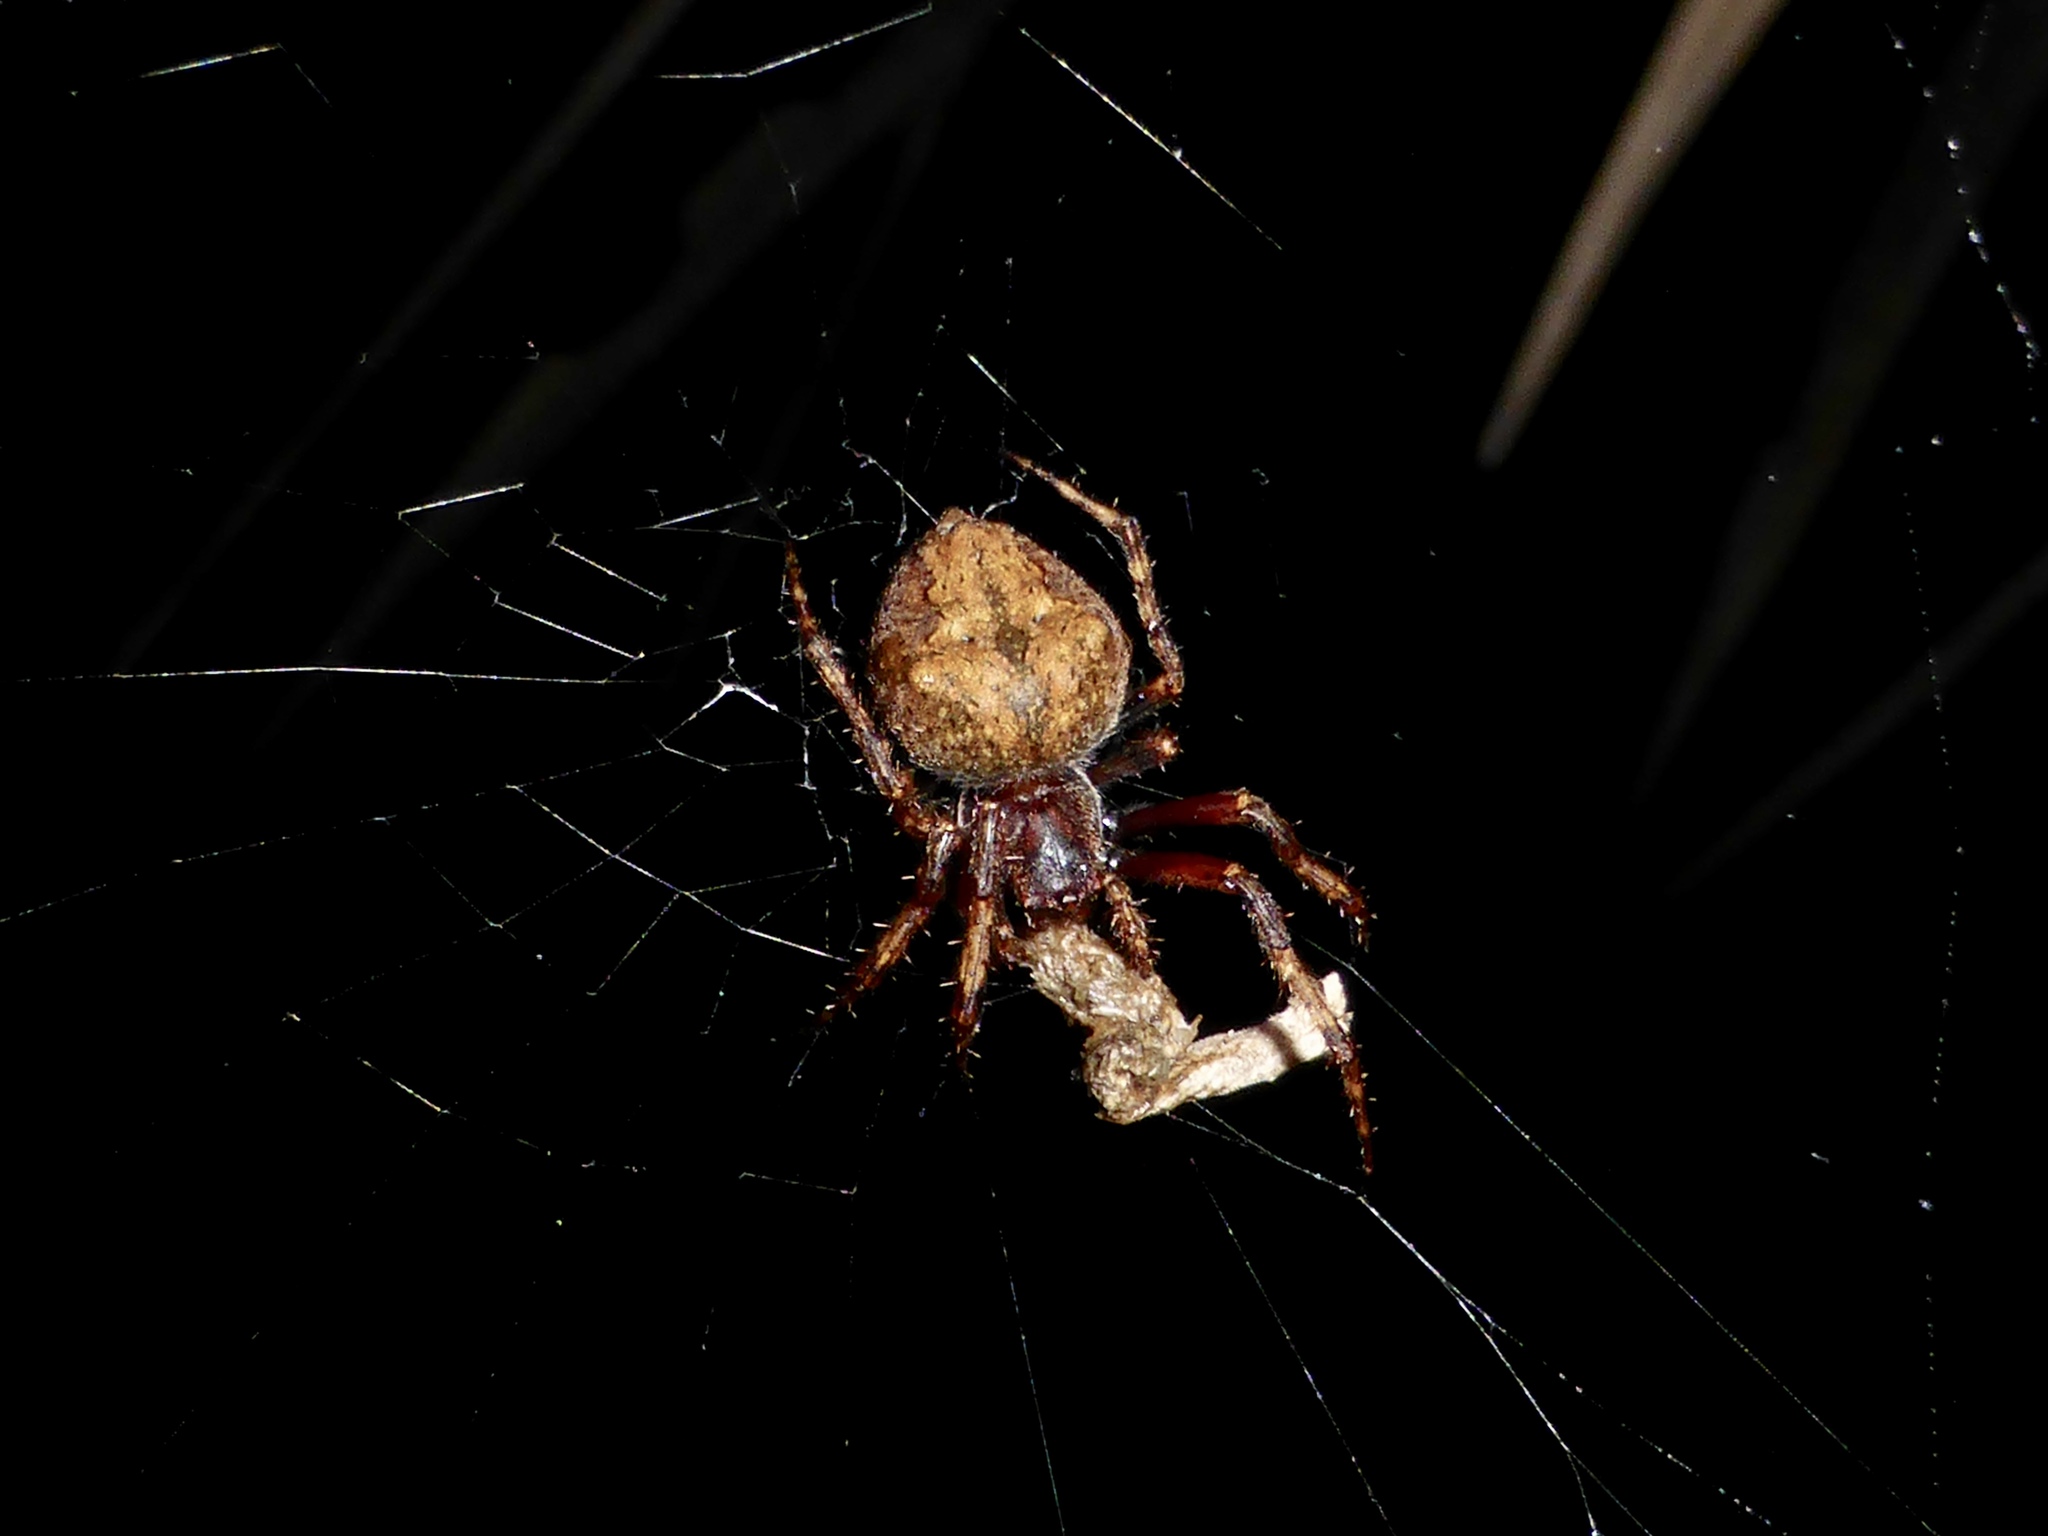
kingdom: Animalia
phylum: Arthropoda
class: Arachnida
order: Araneae
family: Araneidae
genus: Eriophora
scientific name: Eriophora pustulosa
